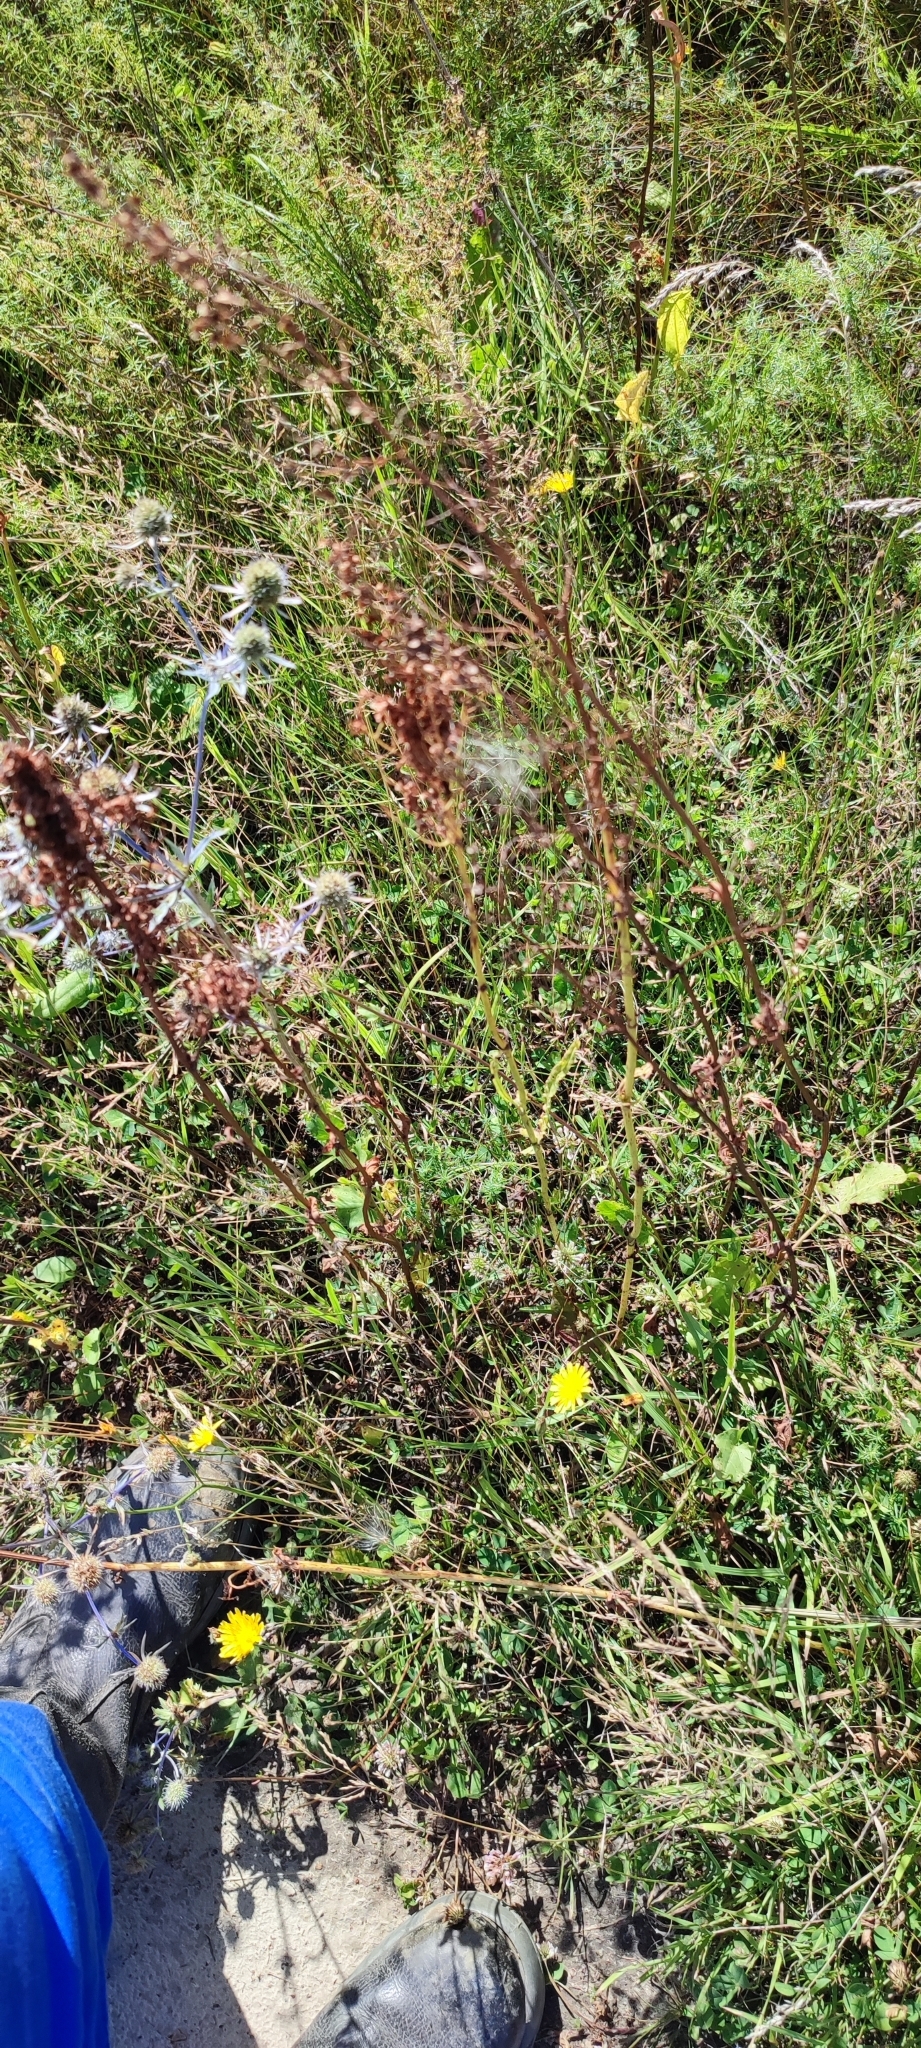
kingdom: Plantae
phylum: Tracheophyta
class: Magnoliopsida
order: Caryophyllales
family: Polygonaceae
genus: Rumex
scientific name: Rumex pseudonatronatus
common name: Field dock
